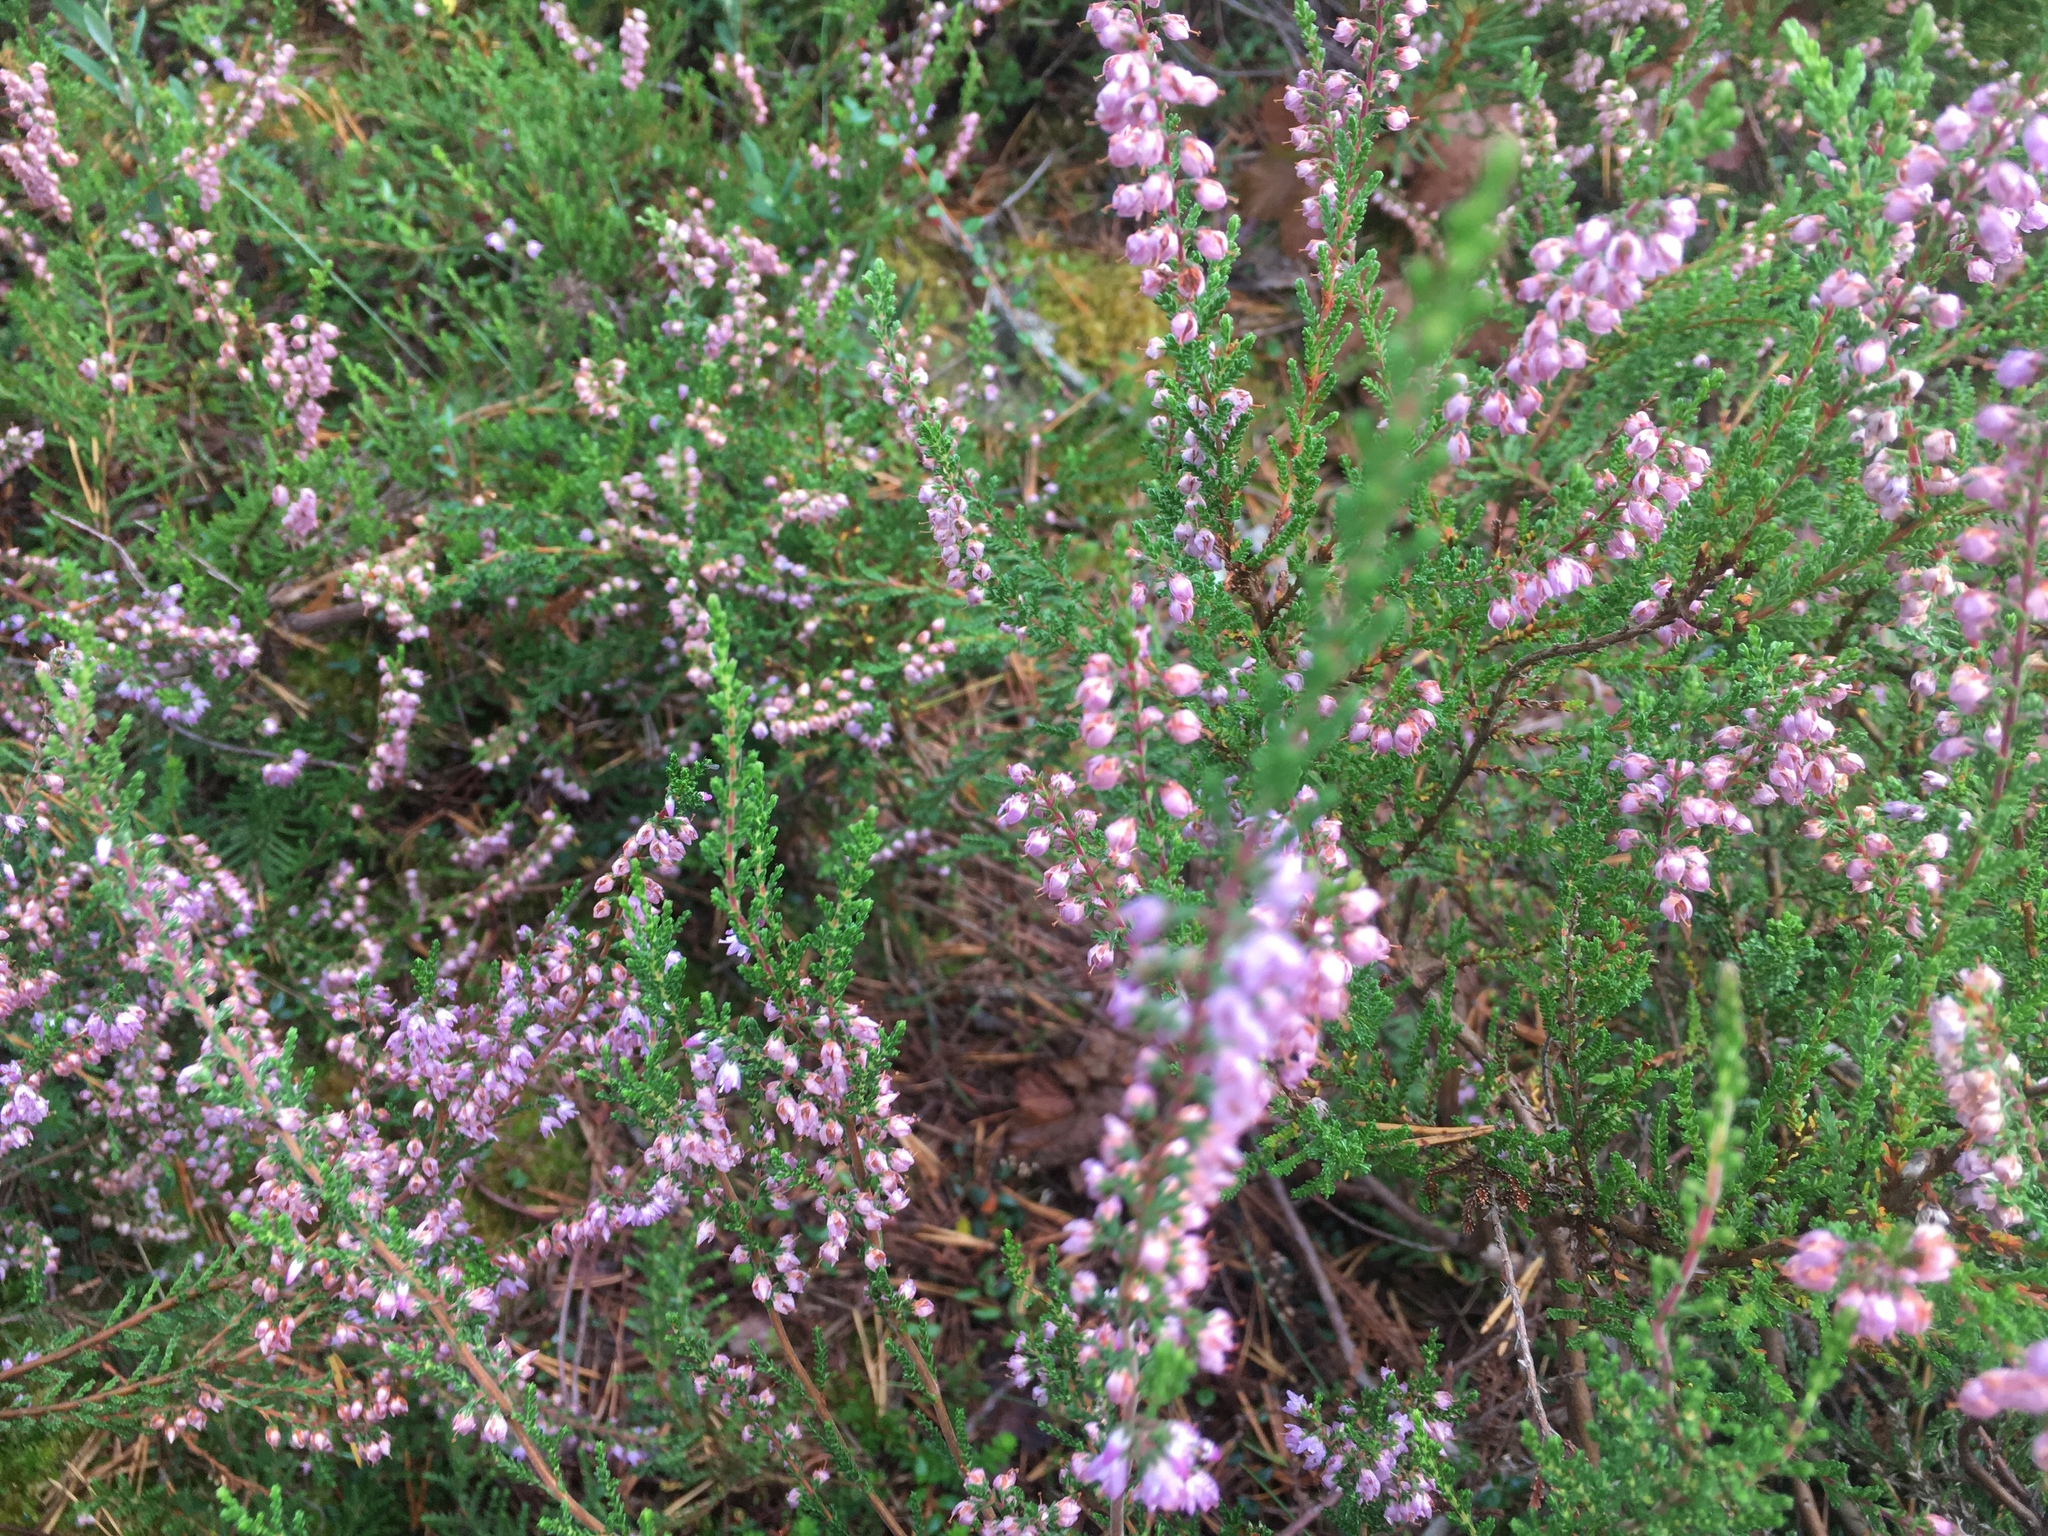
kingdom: Plantae
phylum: Tracheophyta
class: Magnoliopsida
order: Ericales
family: Ericaceae
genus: Calluna
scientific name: Calluna vulgaris
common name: Heather
